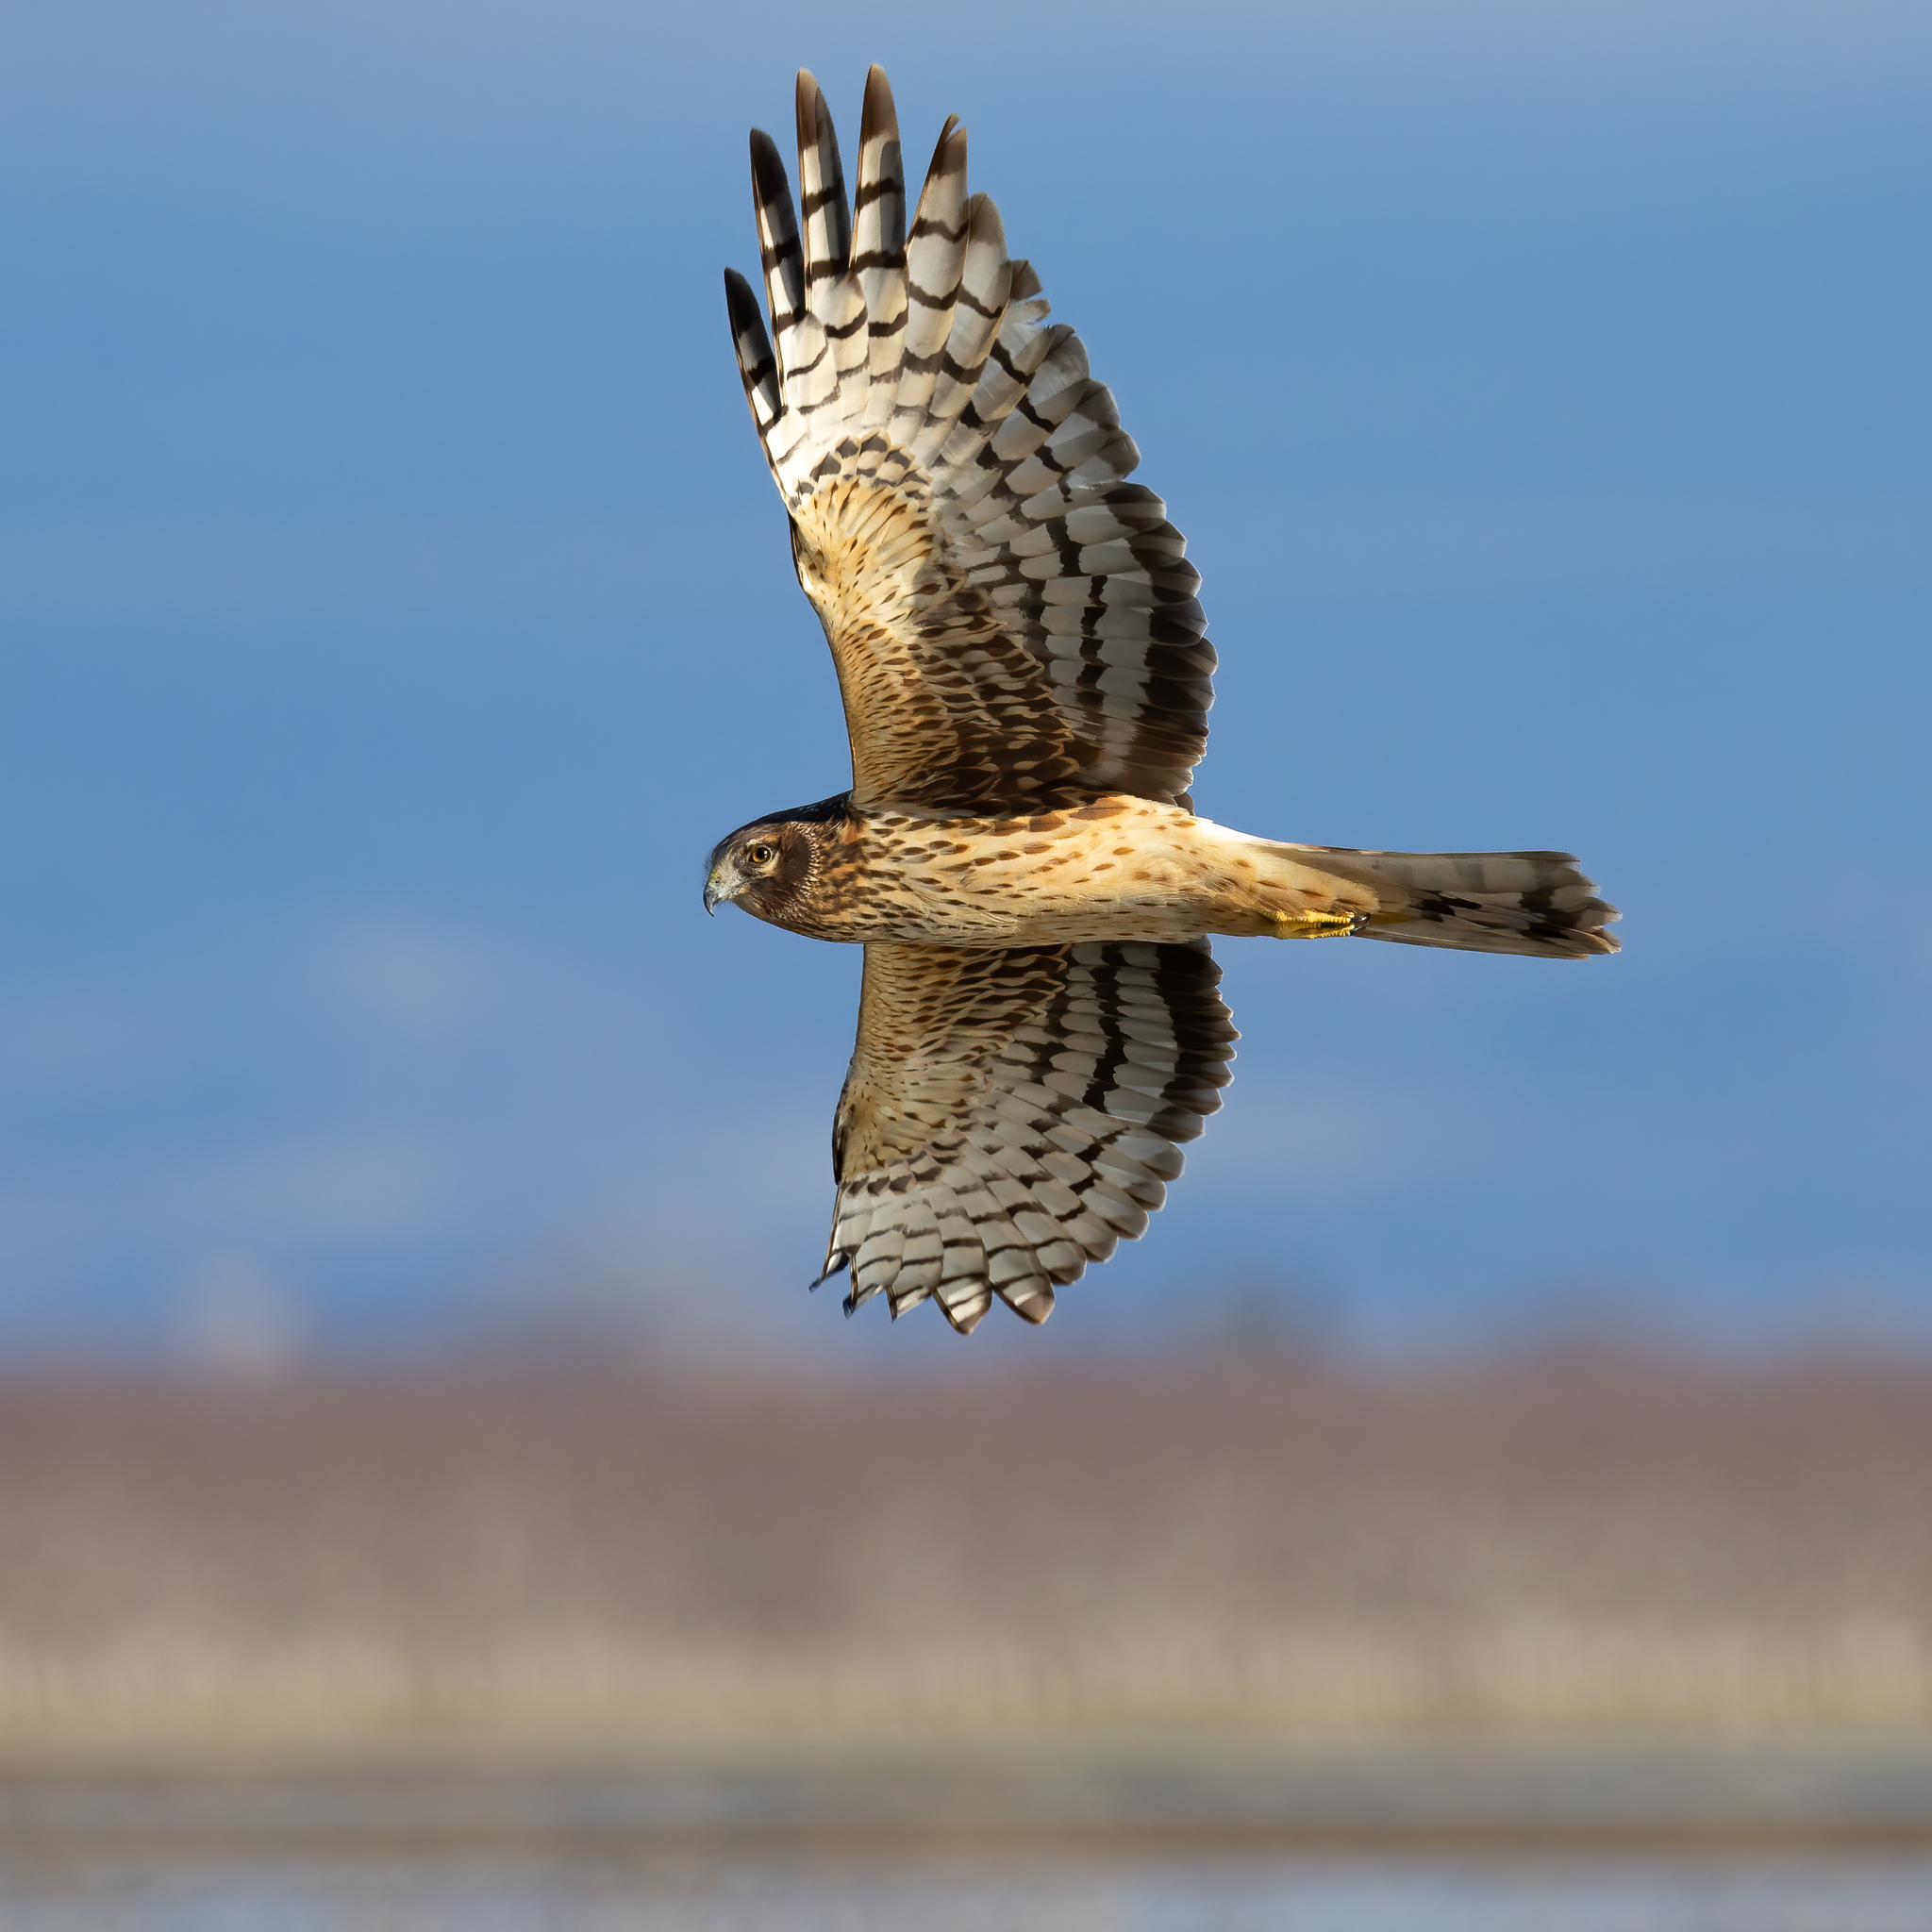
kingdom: Animalia
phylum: Chordata
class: Aves
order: Accipitriformes
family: Accipitridae
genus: Circus
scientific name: Circus cyaneus
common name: Hen harrier
